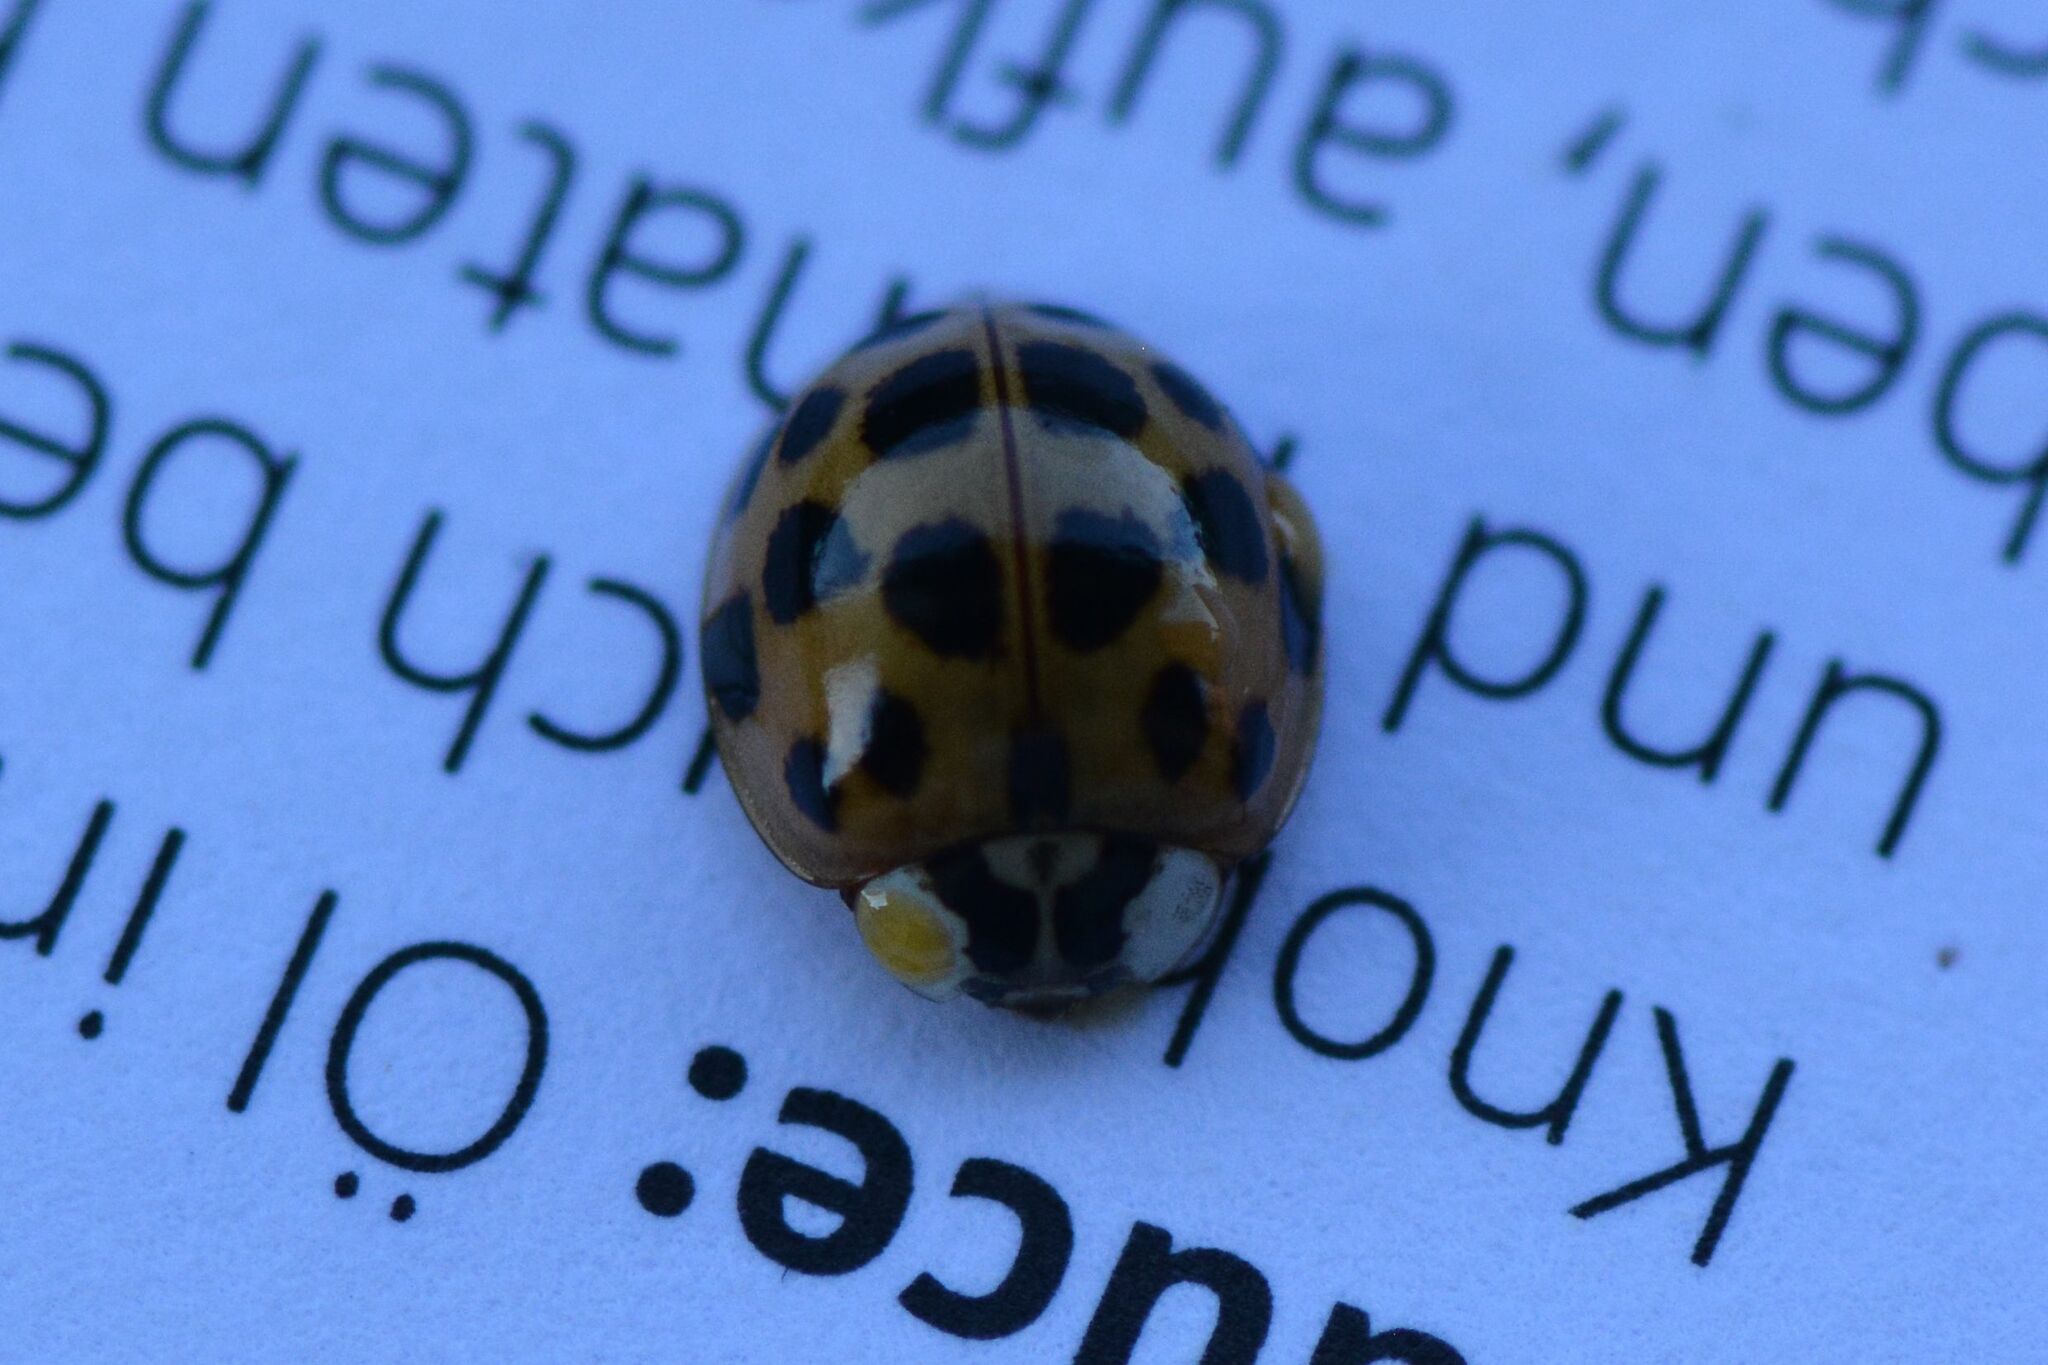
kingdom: Animalia
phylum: Arthropoda
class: Insecta
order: Coleoptera
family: Coccinellidae
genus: Harmonia
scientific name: Harmonia axyridis
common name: Harlequin ladybird
